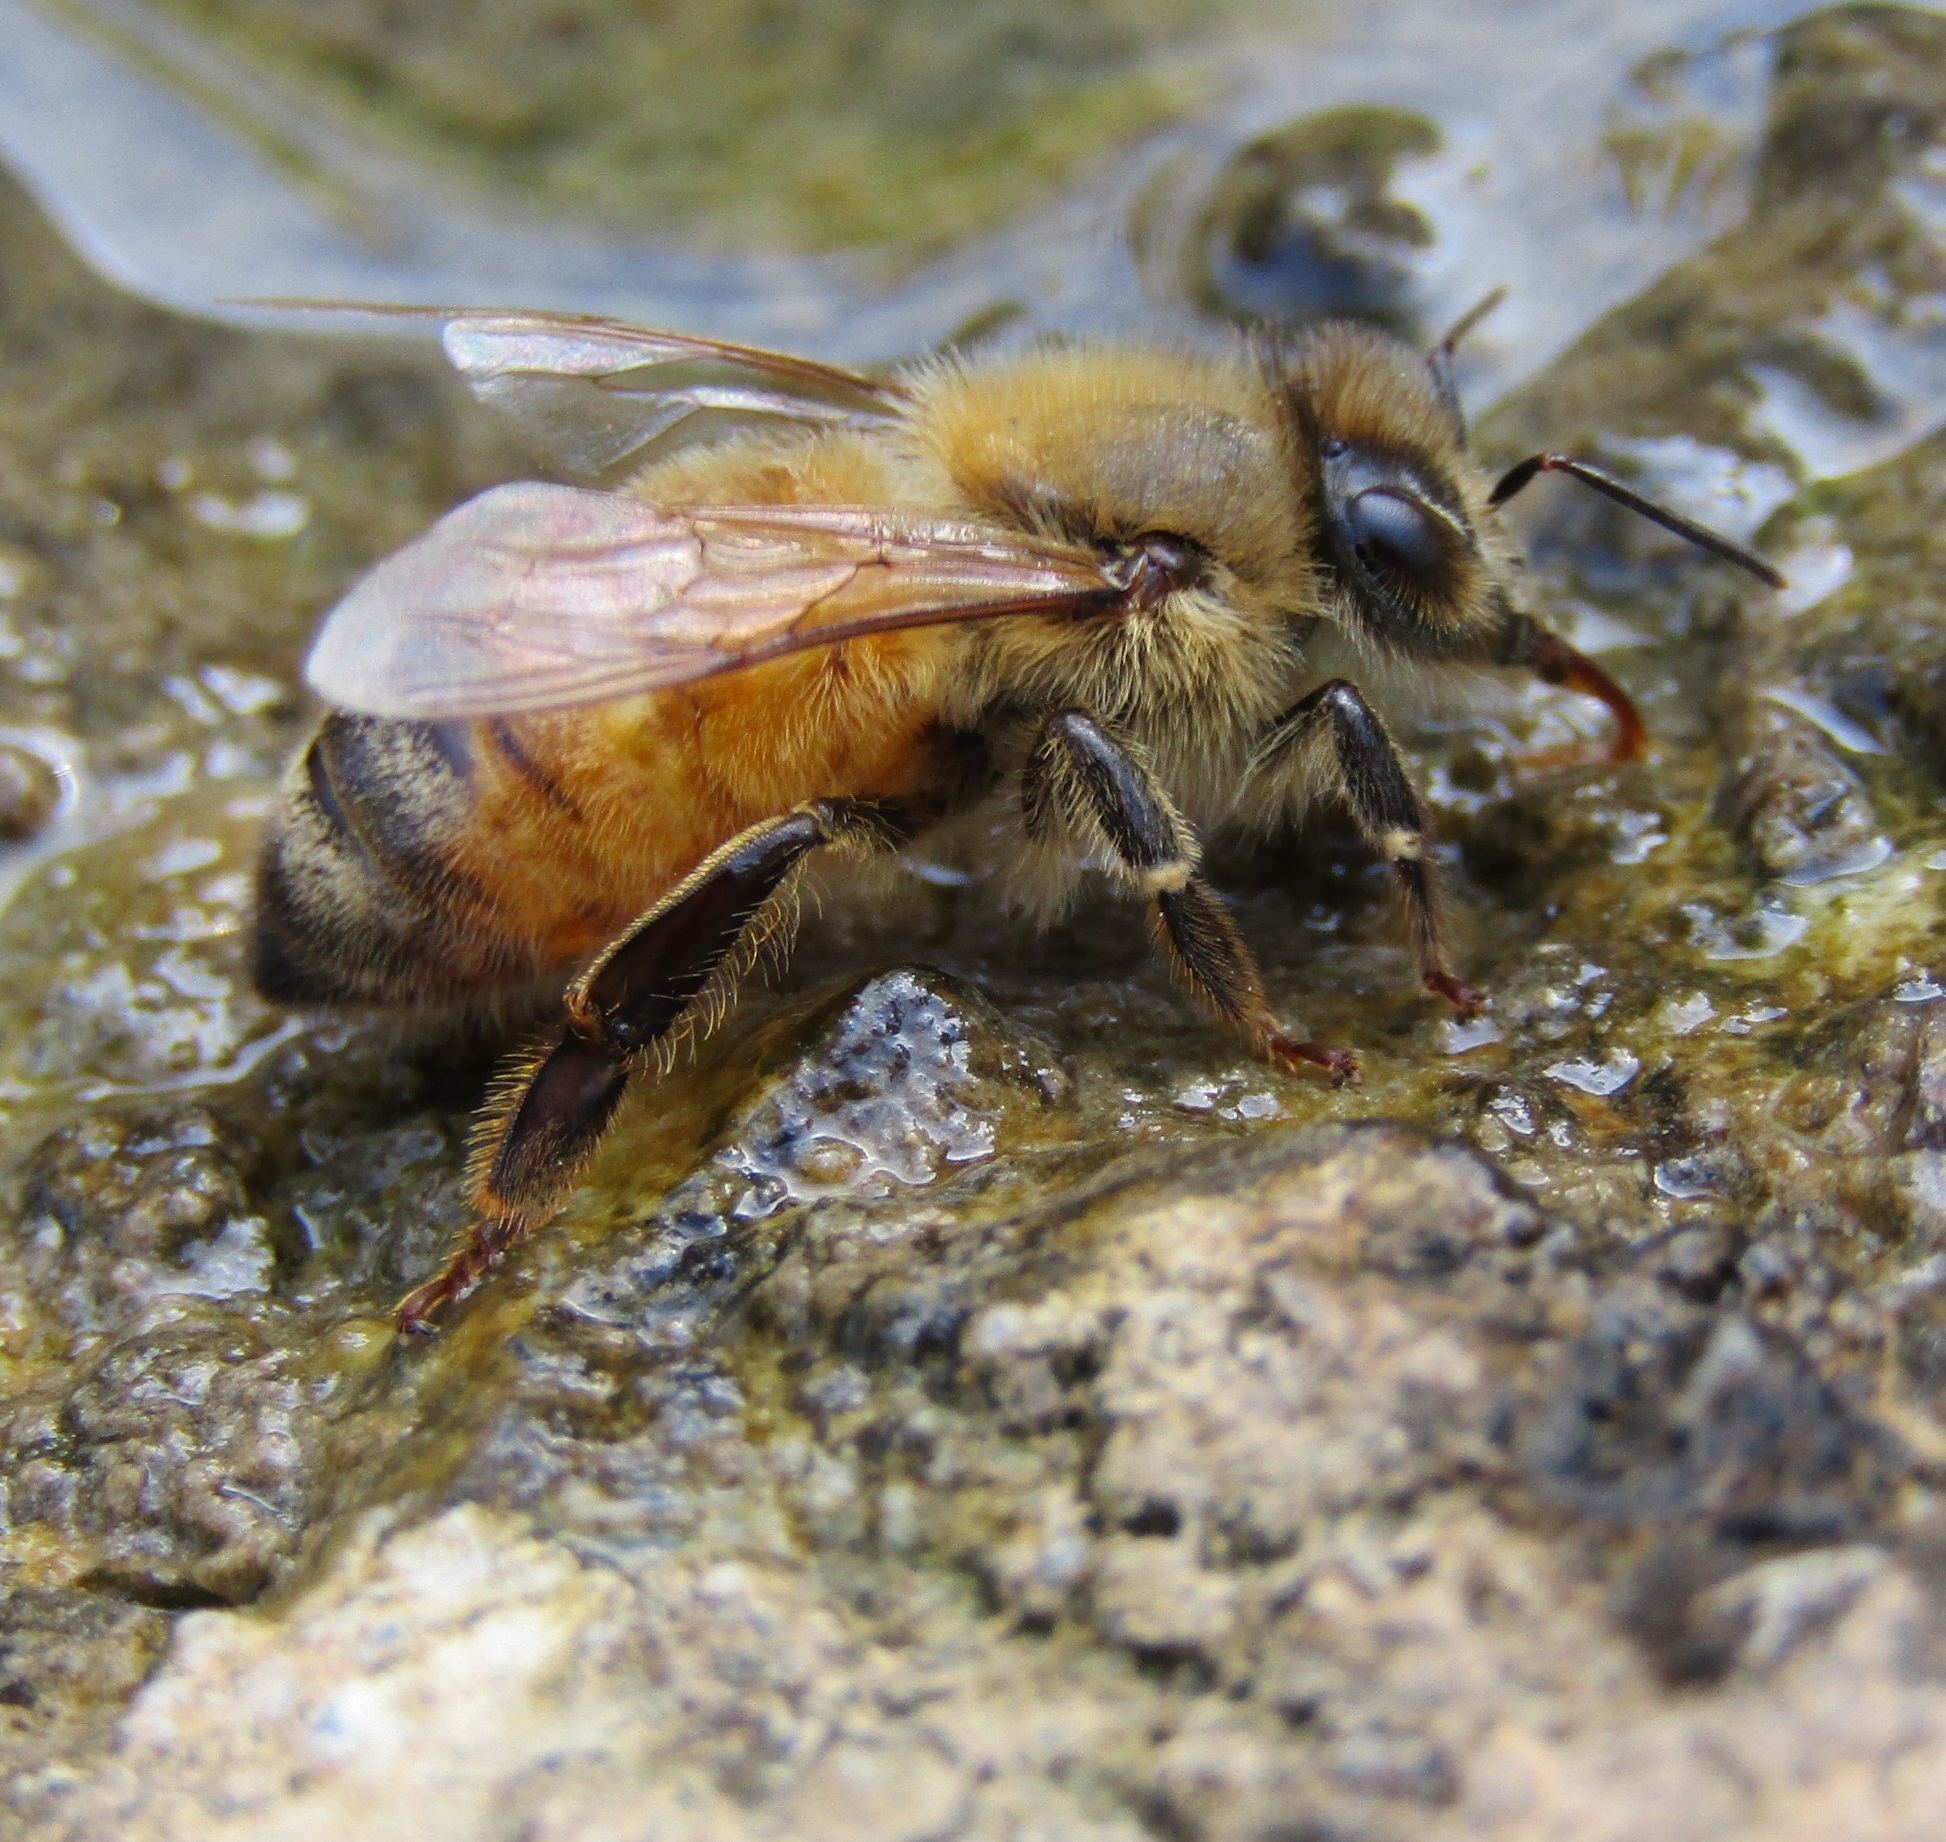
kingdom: Animalia
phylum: Arthropoda
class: Insecta
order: Hymenoptera
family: Apidae
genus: Apis
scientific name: Apis mellifera
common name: Honey bee
